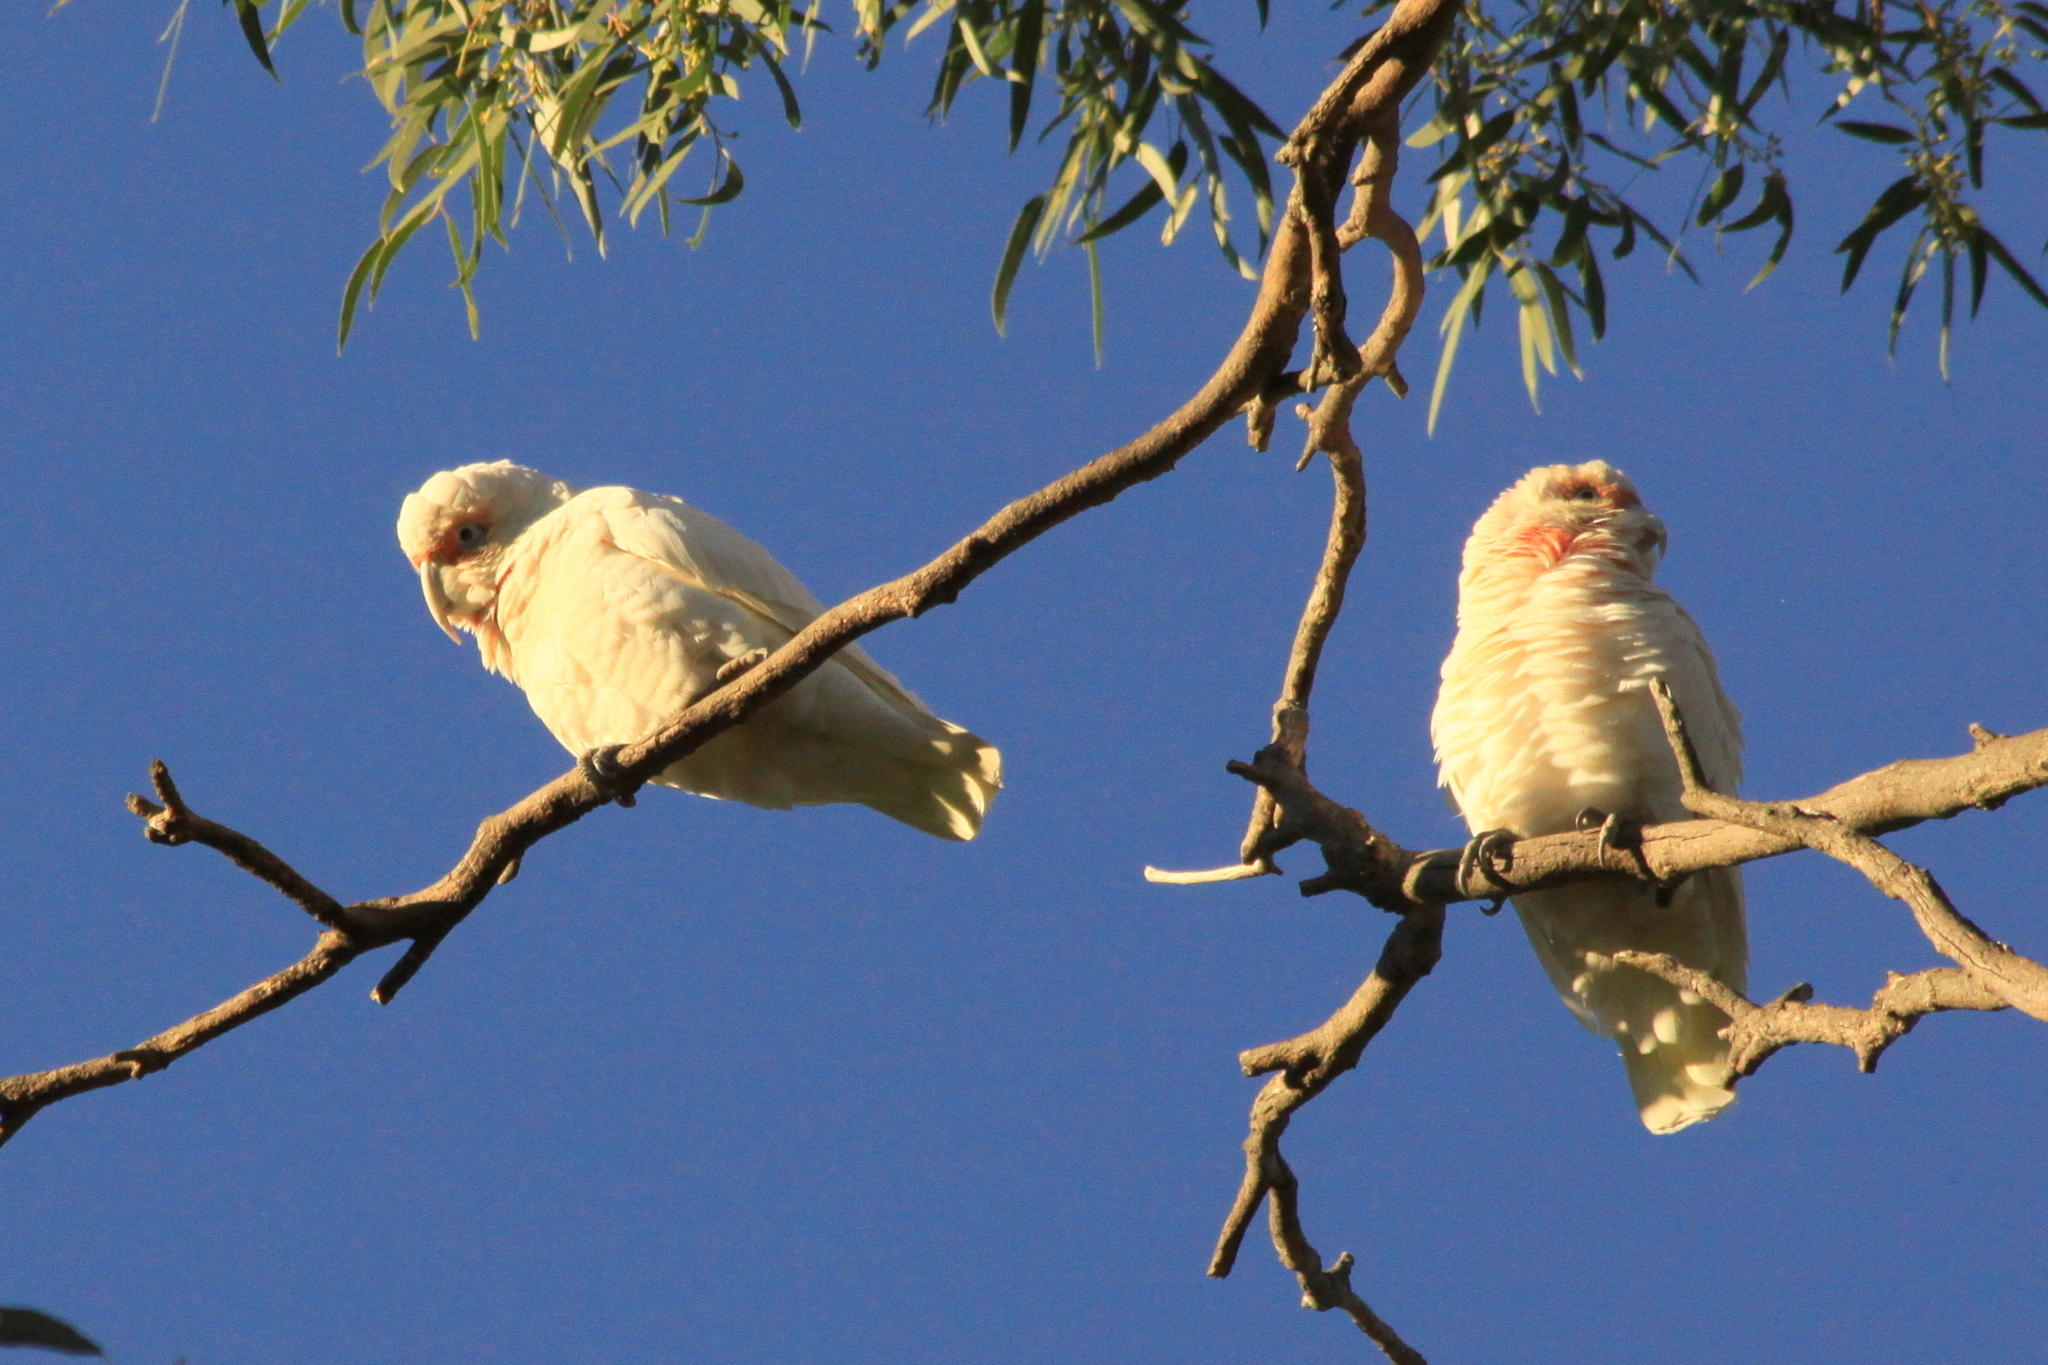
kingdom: Animalia
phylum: Chordata
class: Aves
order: Psittaciformes
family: Psittacidae
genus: Cacatua
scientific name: Cacatua tenuirostris
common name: Long-billed corella
